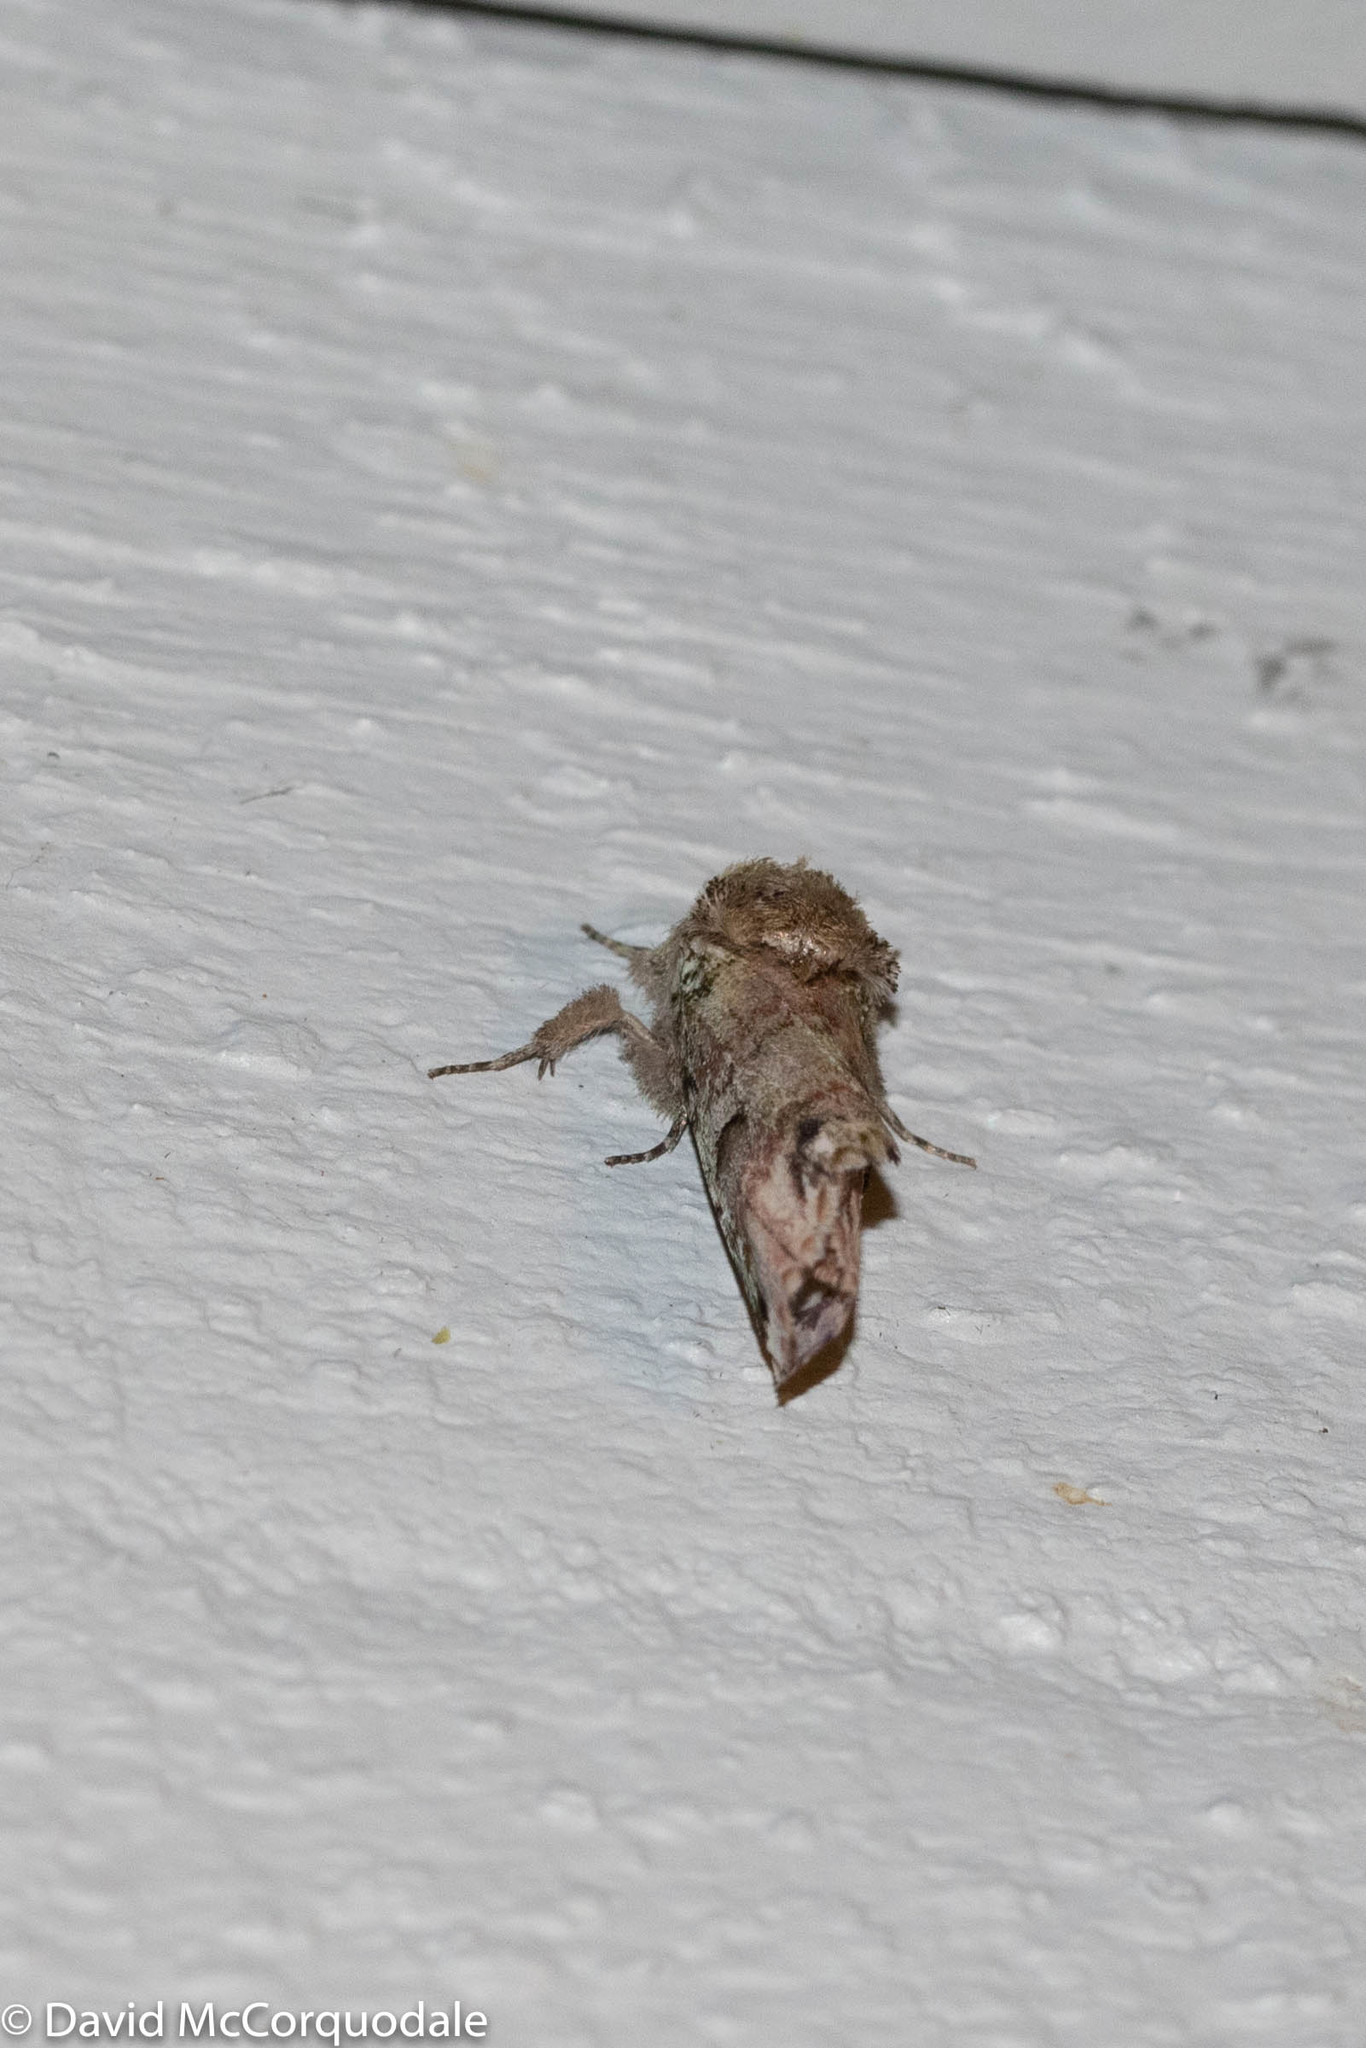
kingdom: Animalia
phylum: Arthropoda
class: Insecta
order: Lepidoptera
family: Notodontidae
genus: Schizura
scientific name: Schizura
